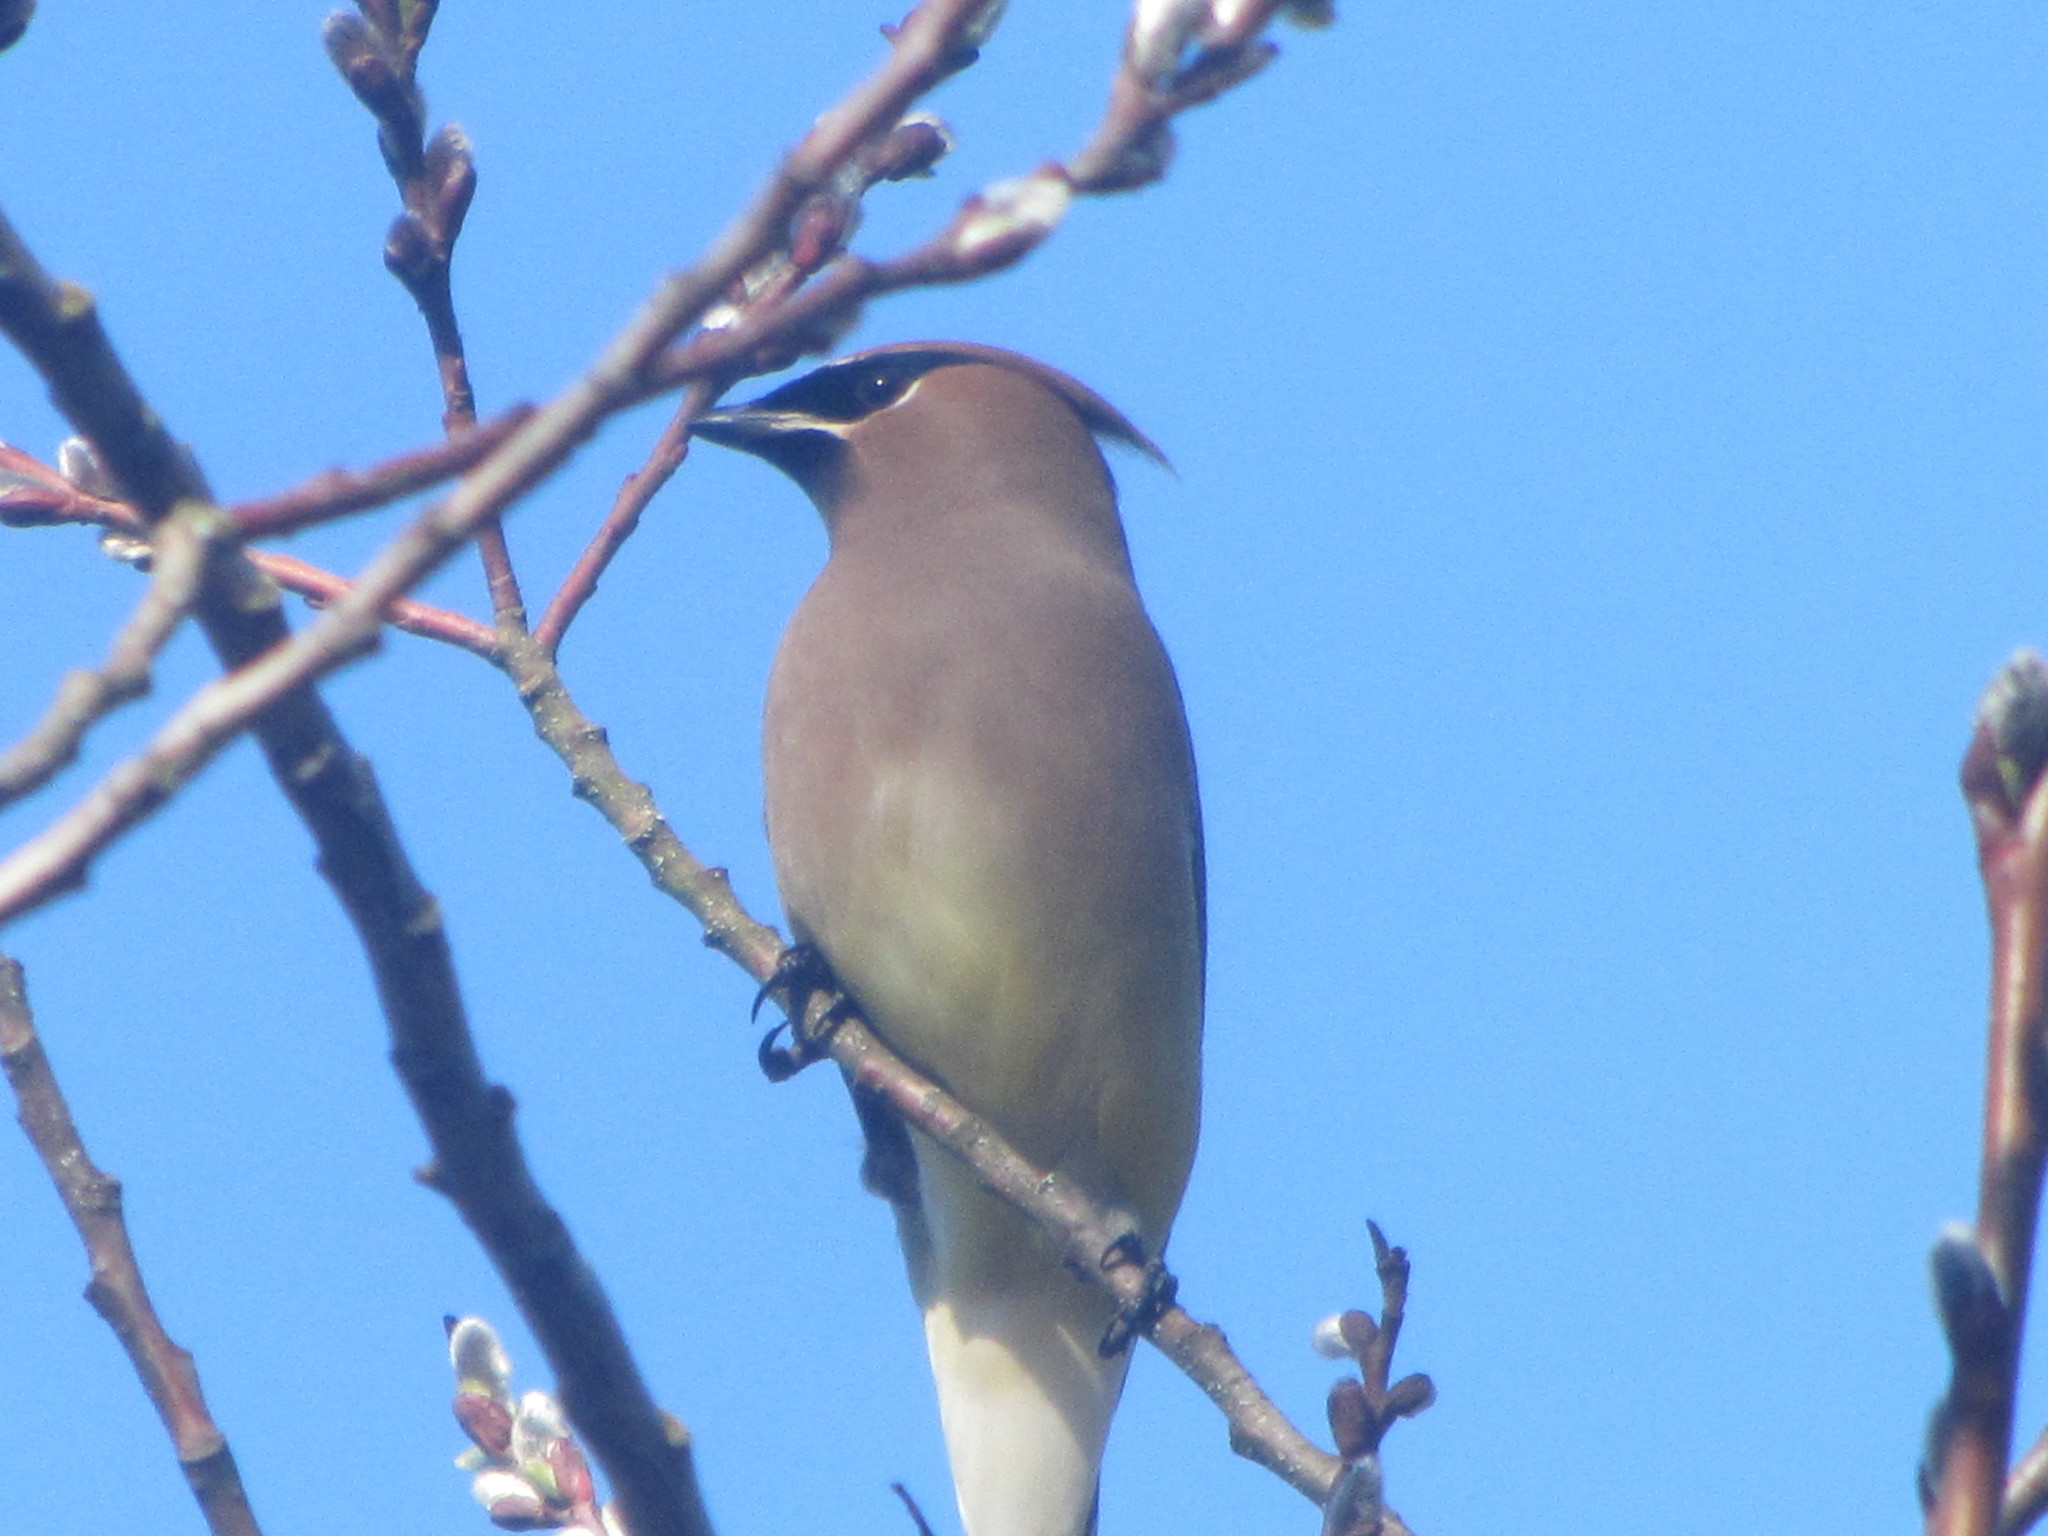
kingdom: Animalia
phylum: Chordata
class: Aves
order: Passeriformes
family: Bombycillidae
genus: Bombycilla
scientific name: Bombycilla cedrorum
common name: Cedar waxwing
